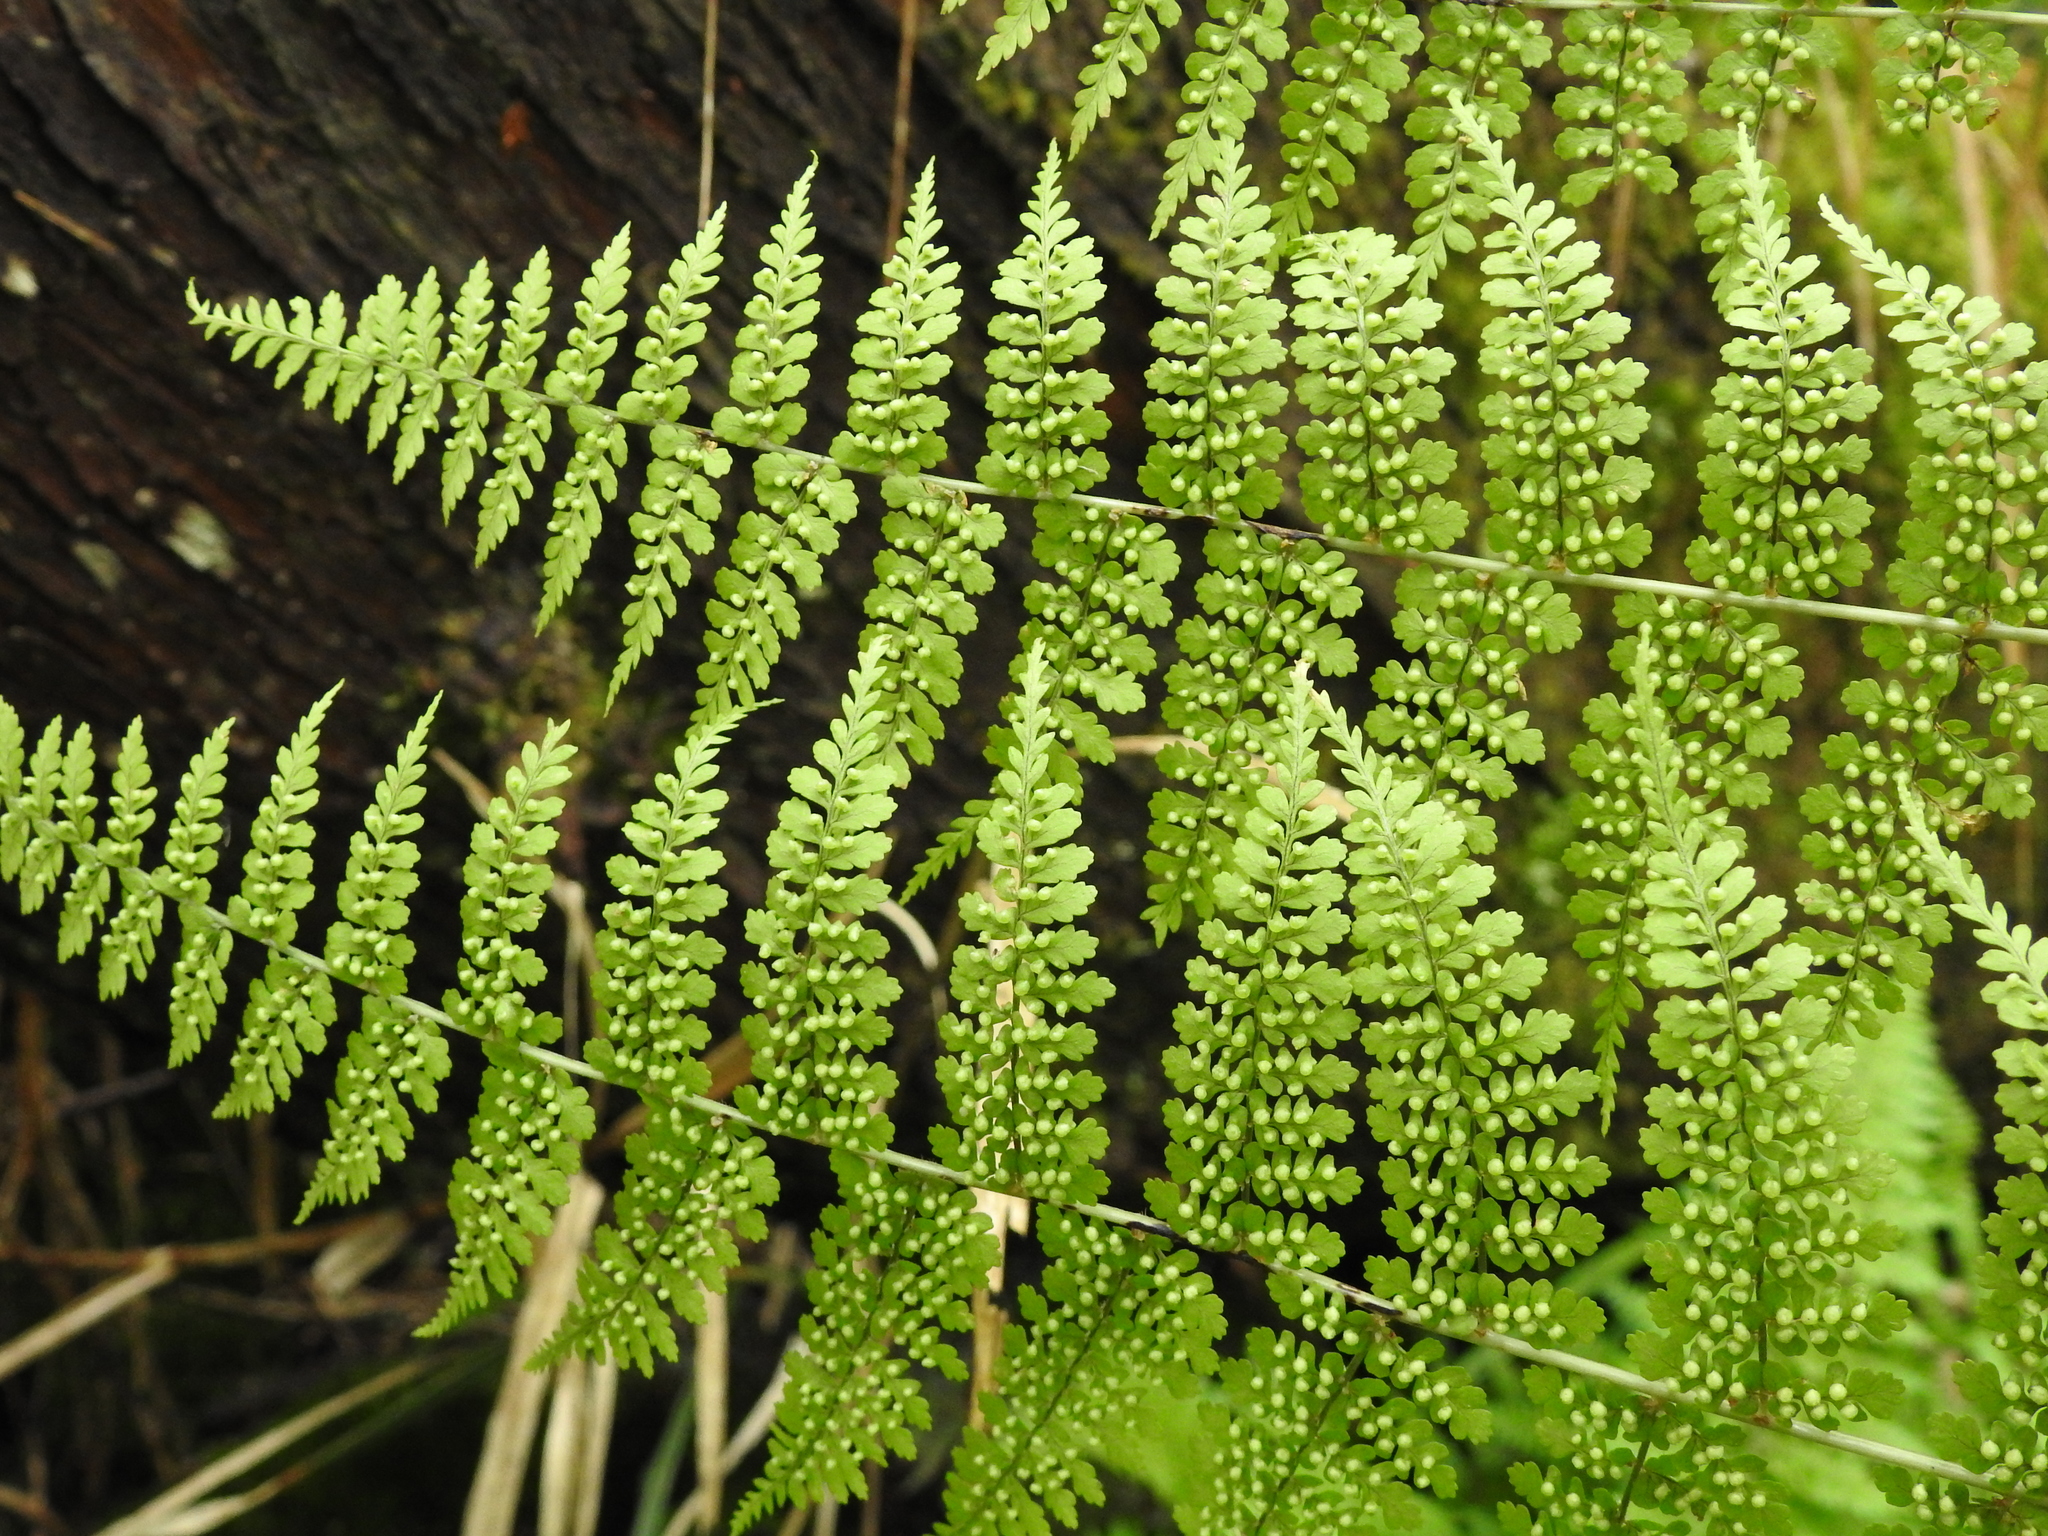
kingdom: Plantae
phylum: Tracheophyta
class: Polypodiopsida
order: Polypodiales
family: Dryopteridaceae
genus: Dryopteris
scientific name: Dryopteris wuzhaohongii
